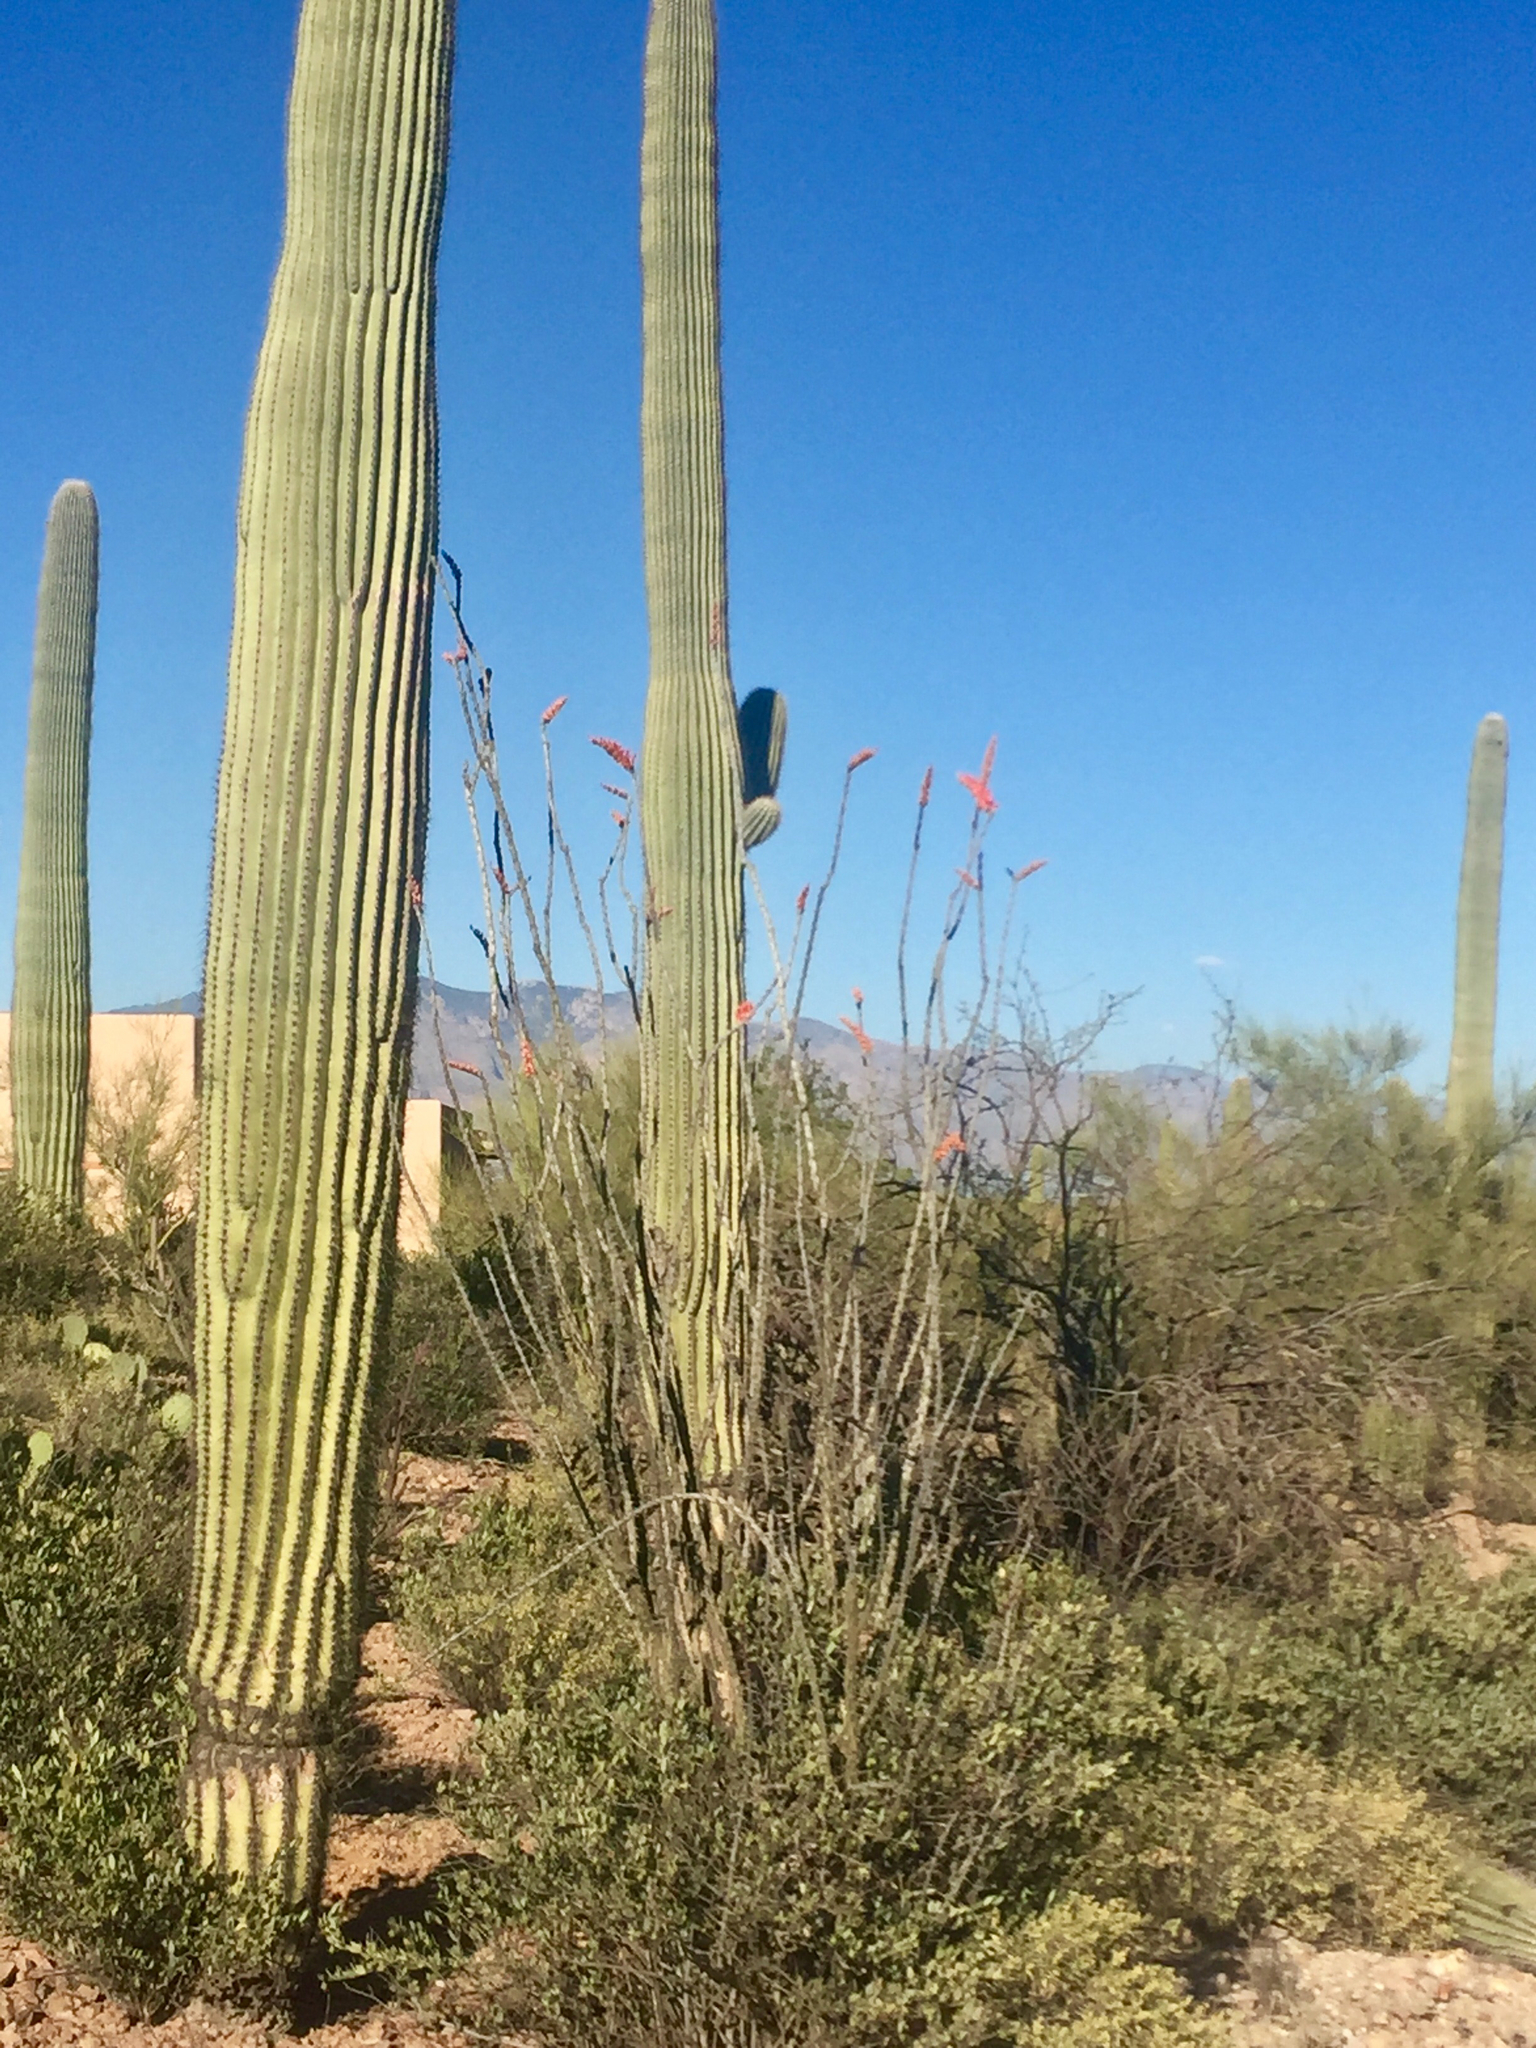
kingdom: Plantae
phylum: Tracheophyta
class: Magnoliopsida
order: Ericales
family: Fouquieriaceae
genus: Fouquieria
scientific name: Fouquieria splendens
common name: Vine-cactus
